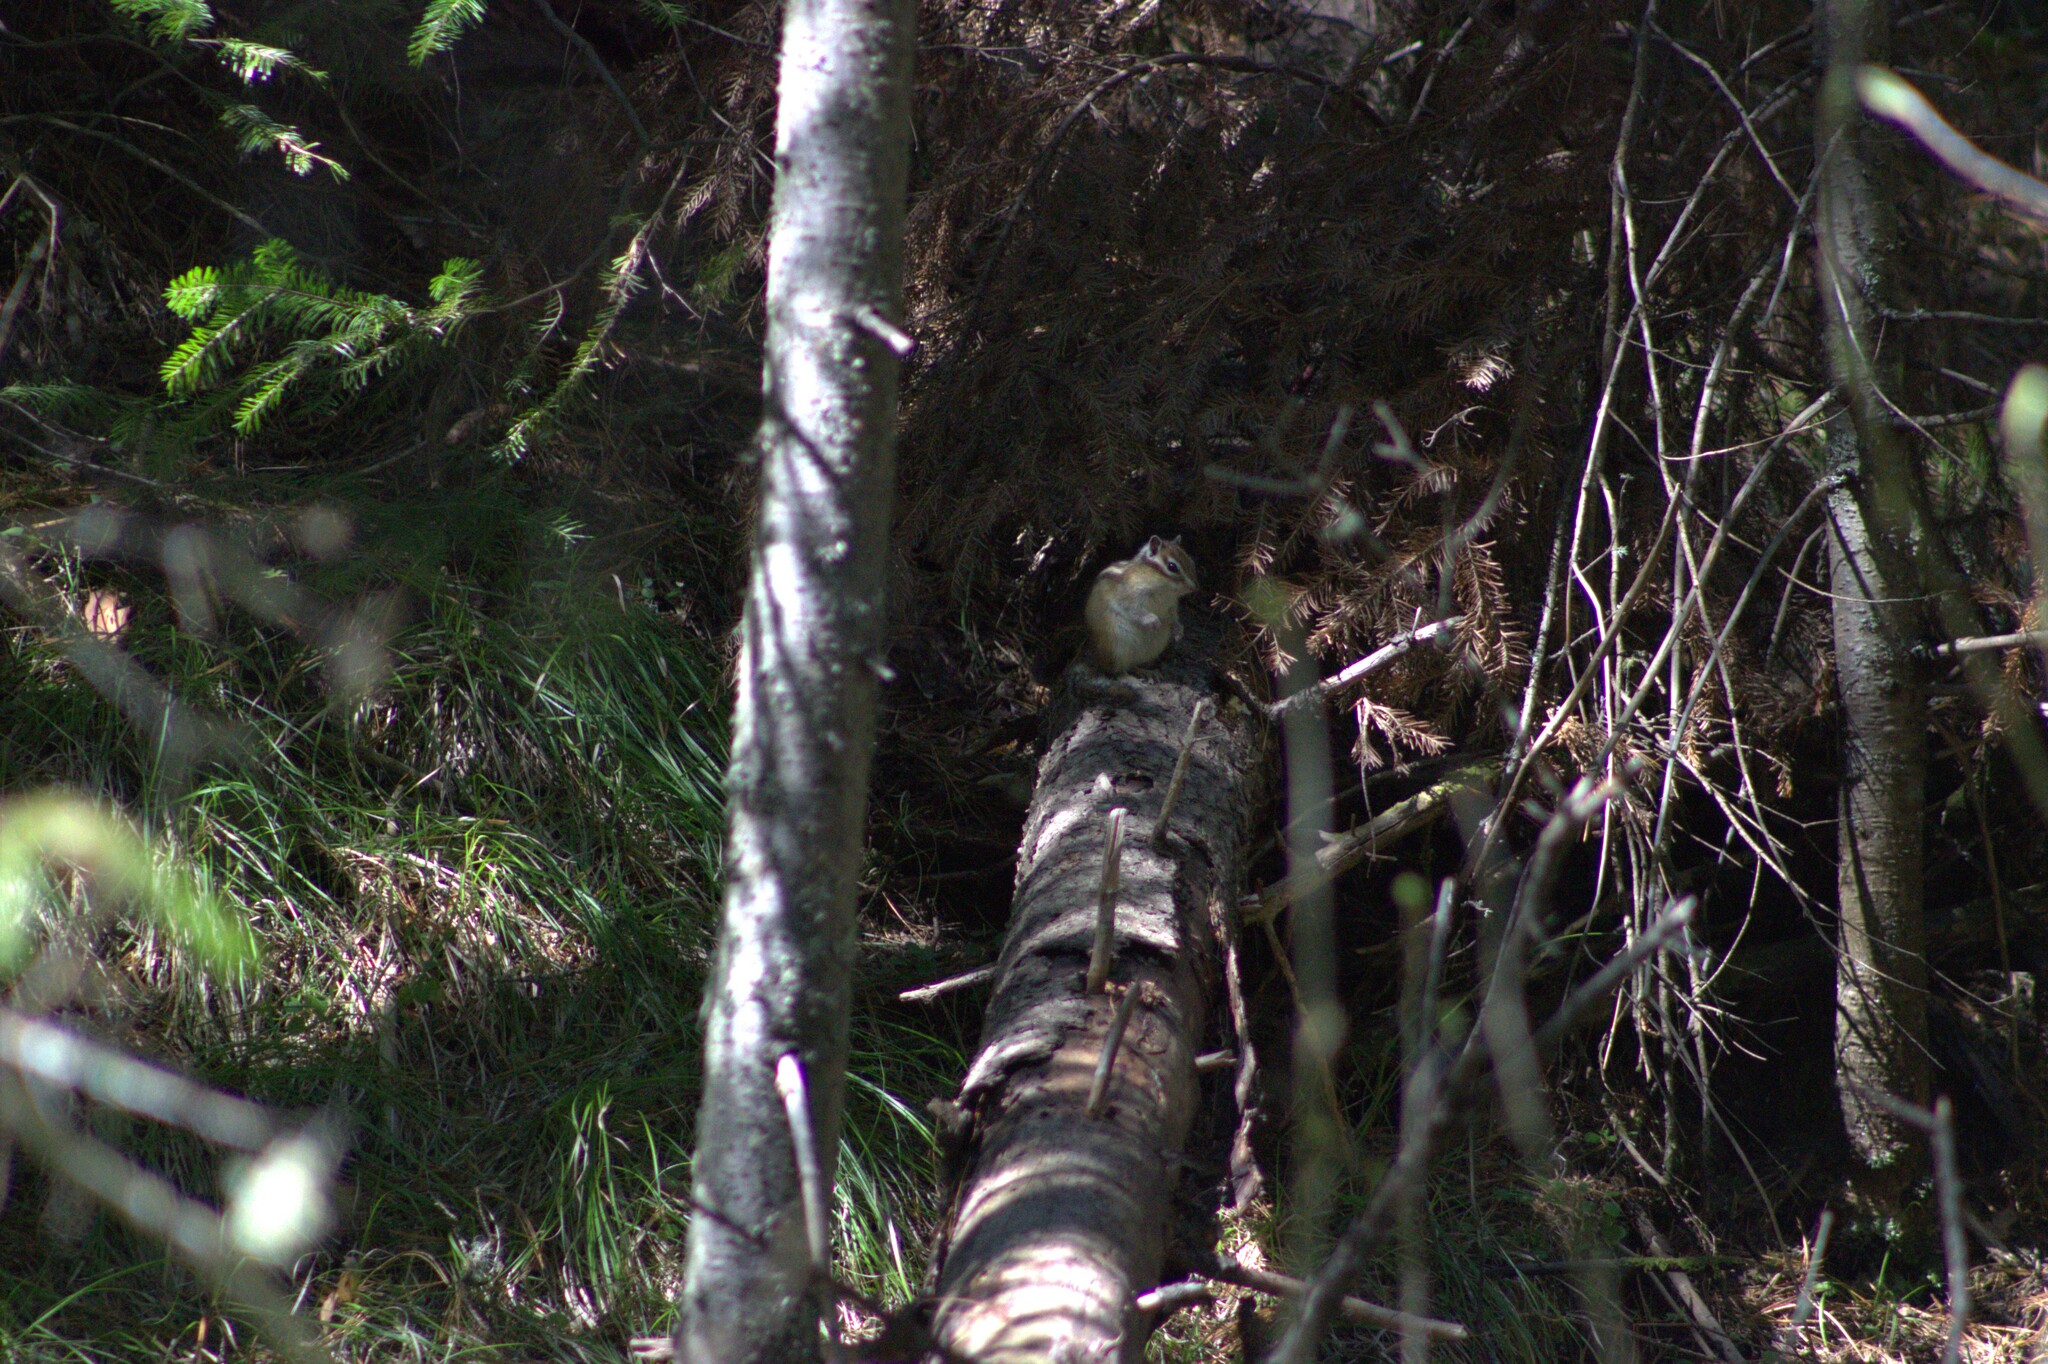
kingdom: Animalia
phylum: Chordata
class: Mammalia
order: Rodentia
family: Sciuridae
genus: Tamias
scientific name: Tamias sibiricus
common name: Siberian chipmunk
